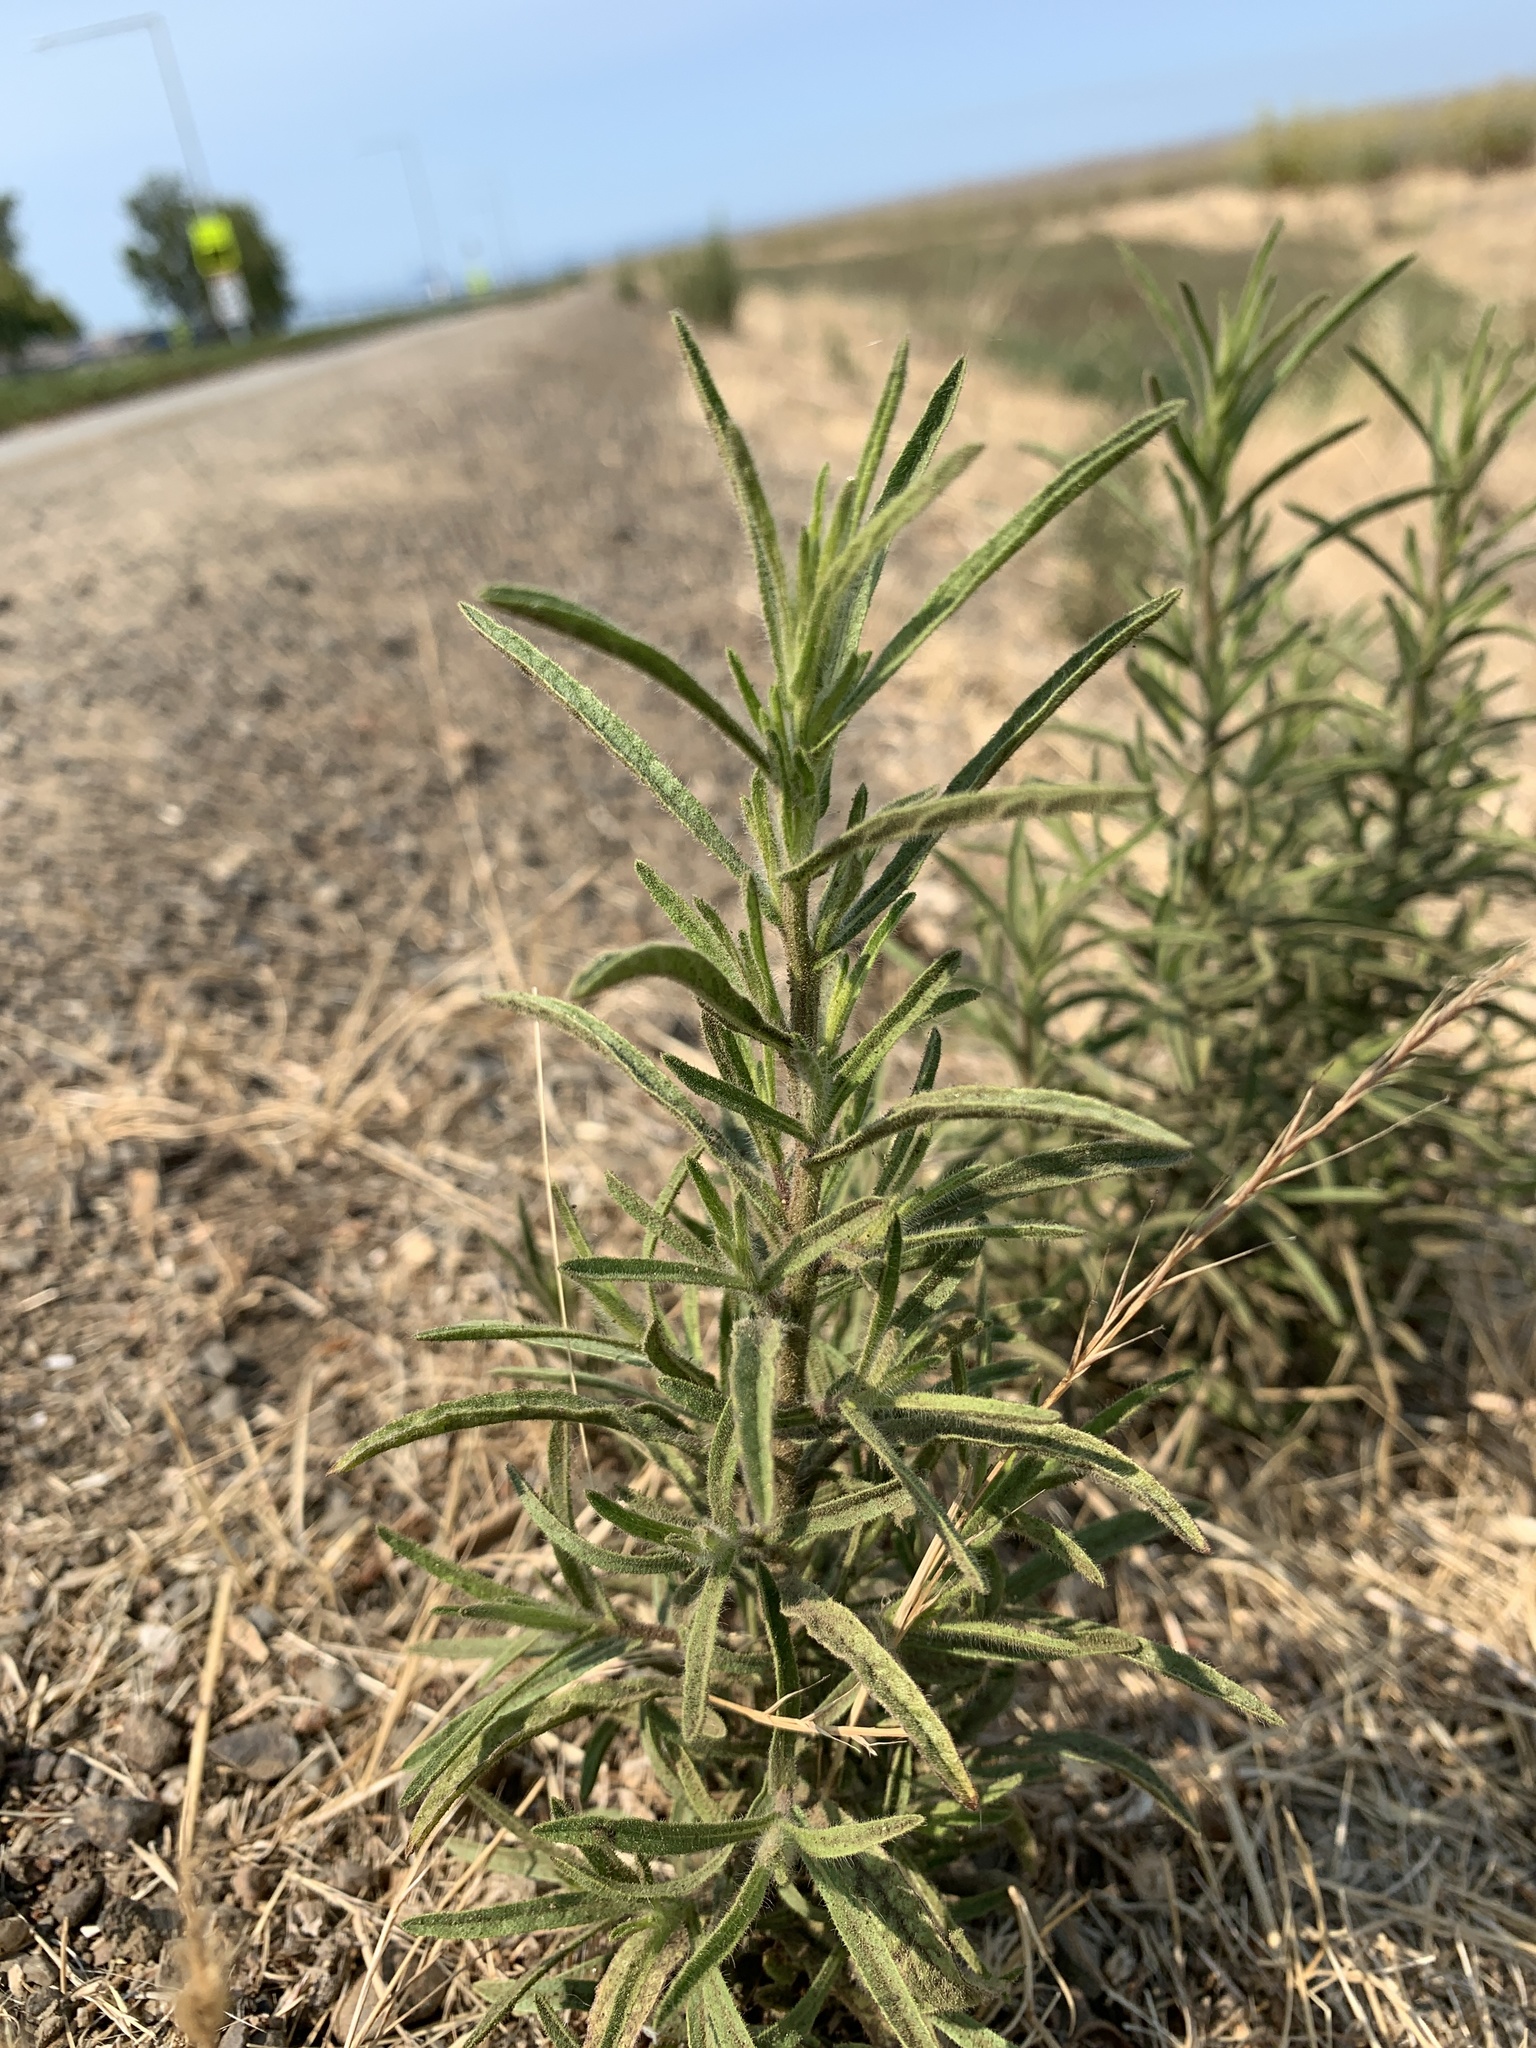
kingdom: Plantae
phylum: Tracheophyta
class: Magnoliopsida
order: Asterales
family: Asteraceae
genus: Dittrichia
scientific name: Dittrichia graveolens
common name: Stinking fleabane
